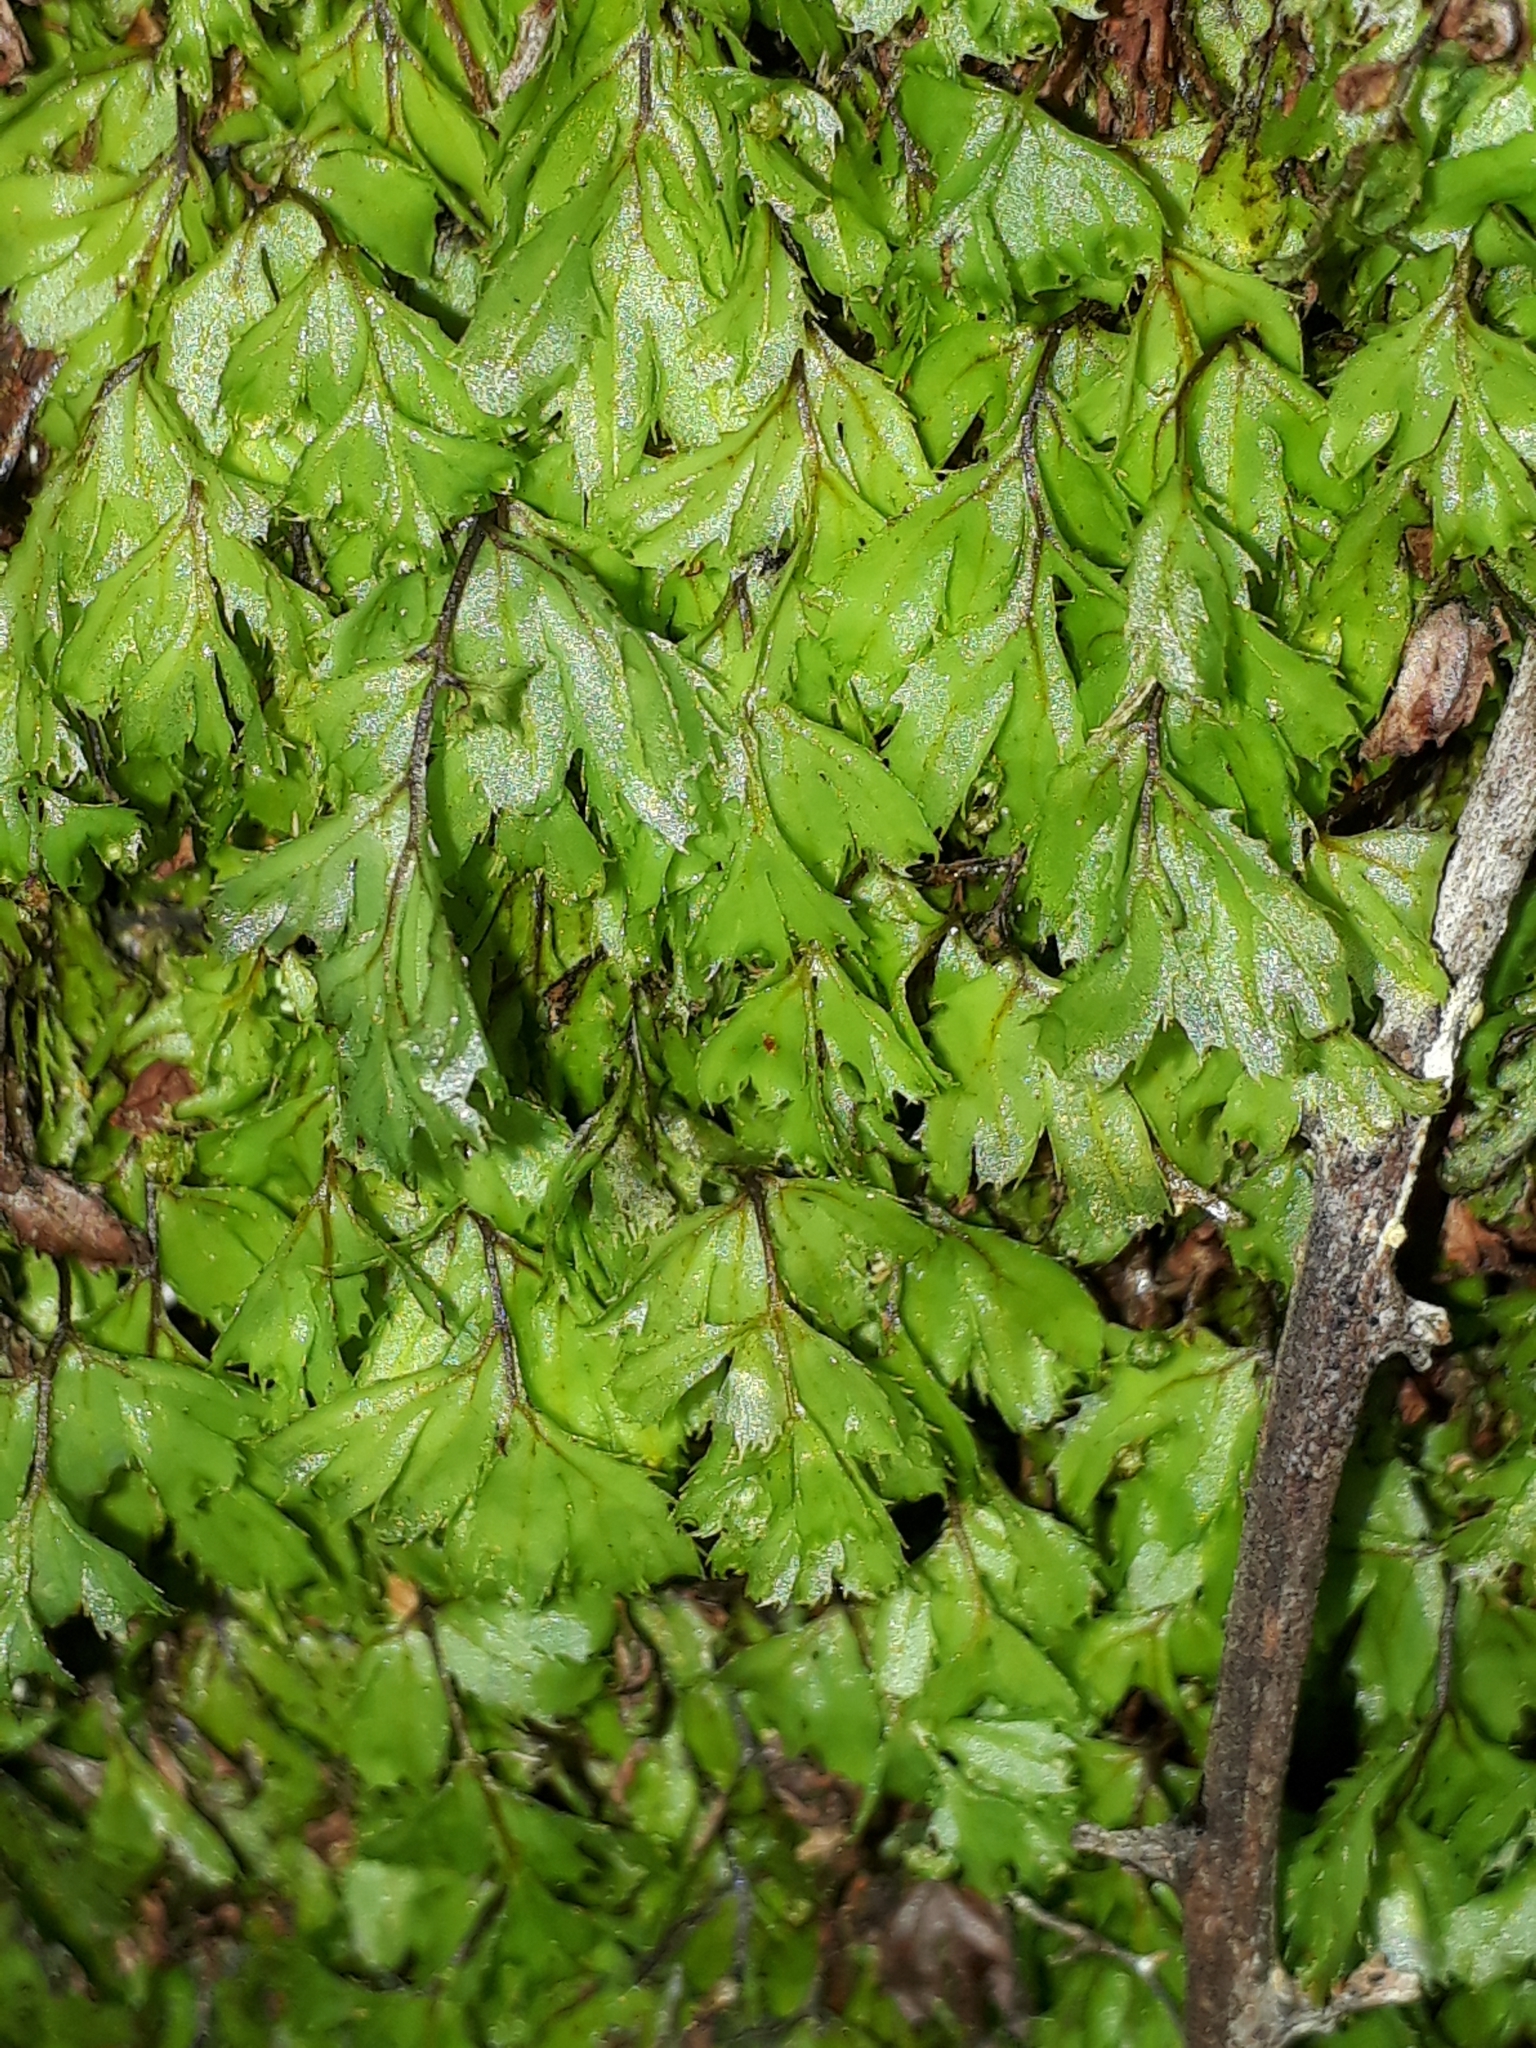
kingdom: Plantae
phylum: Tracheophyta
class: Polypodiopsida
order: Hymenophyllales
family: Hymenophyllaceae
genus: Hymenophyllum
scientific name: Hymenophyllum revolutum
